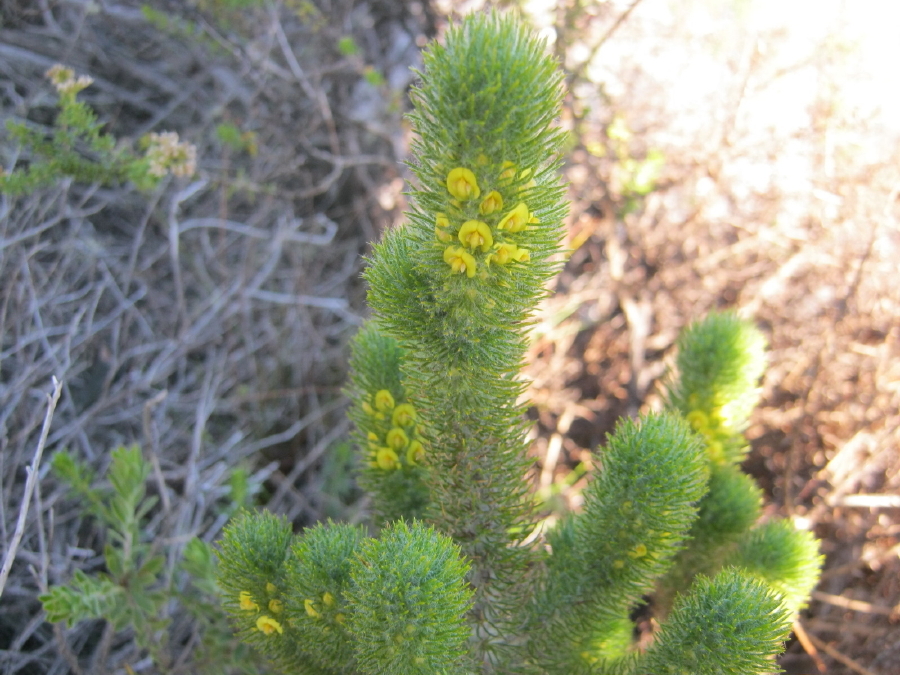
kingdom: Plantae
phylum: Tracheophyta
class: Magnoliopsida
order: Fabales
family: Fabaceae
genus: Aspalathus
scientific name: Aspalathus alopecurus
